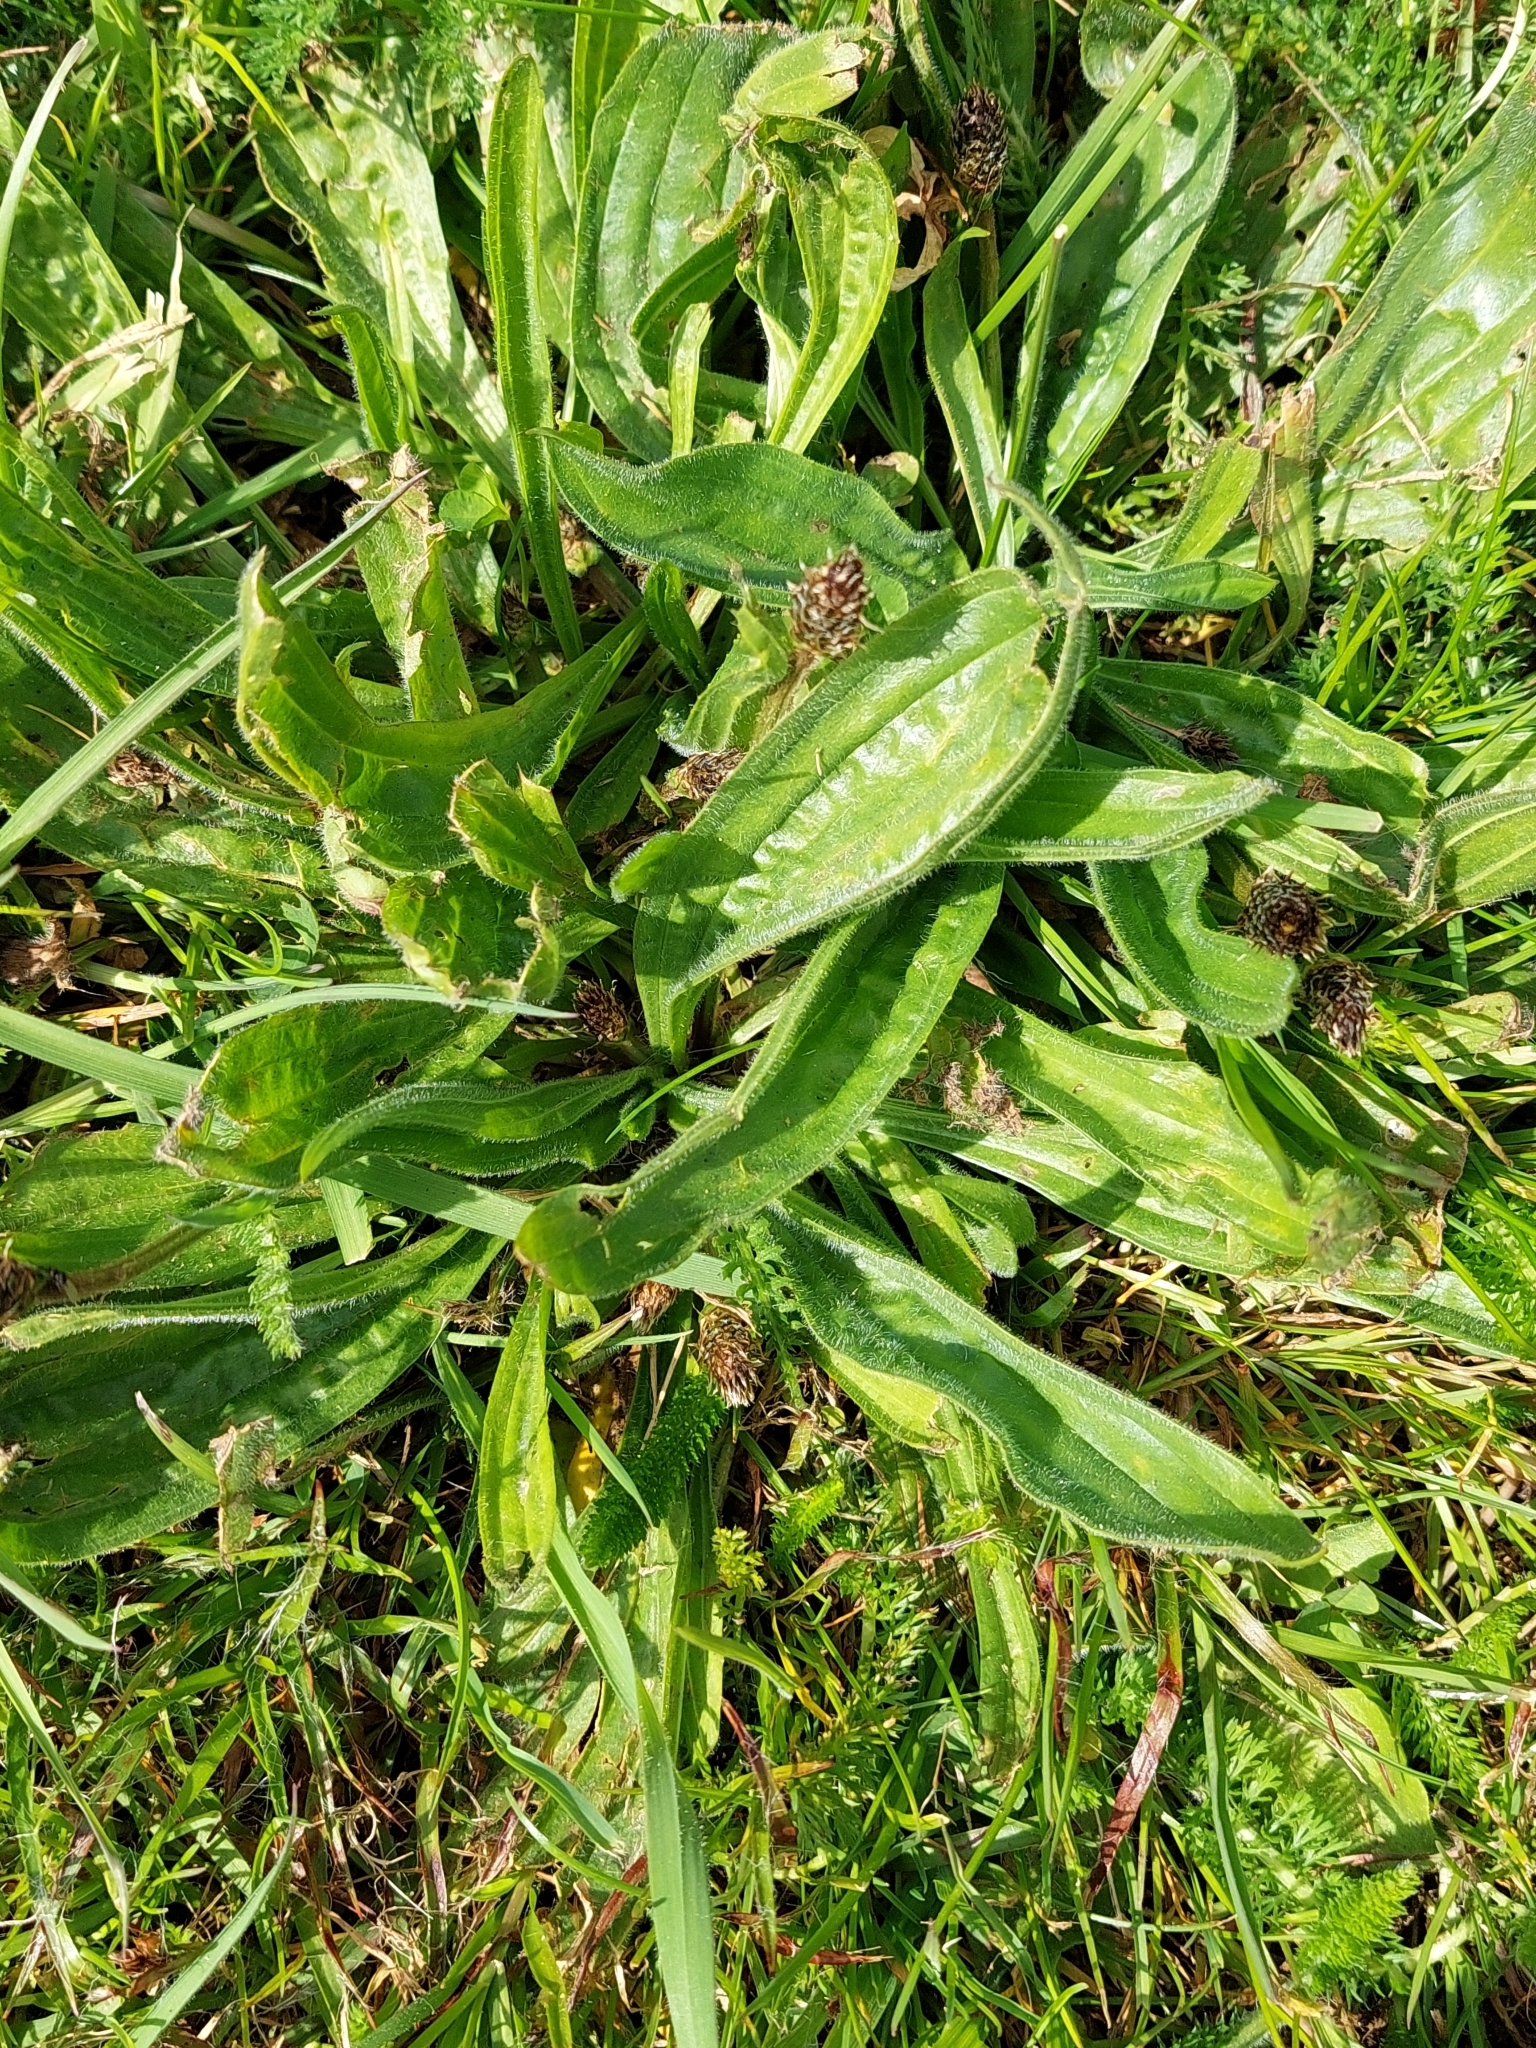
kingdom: Plantae
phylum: Tracheophyta
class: Magnoliopsida
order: Lamiales
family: Plantaginaceae
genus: Plantago
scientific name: Plantago lanceolata
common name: Ribwort plantain
